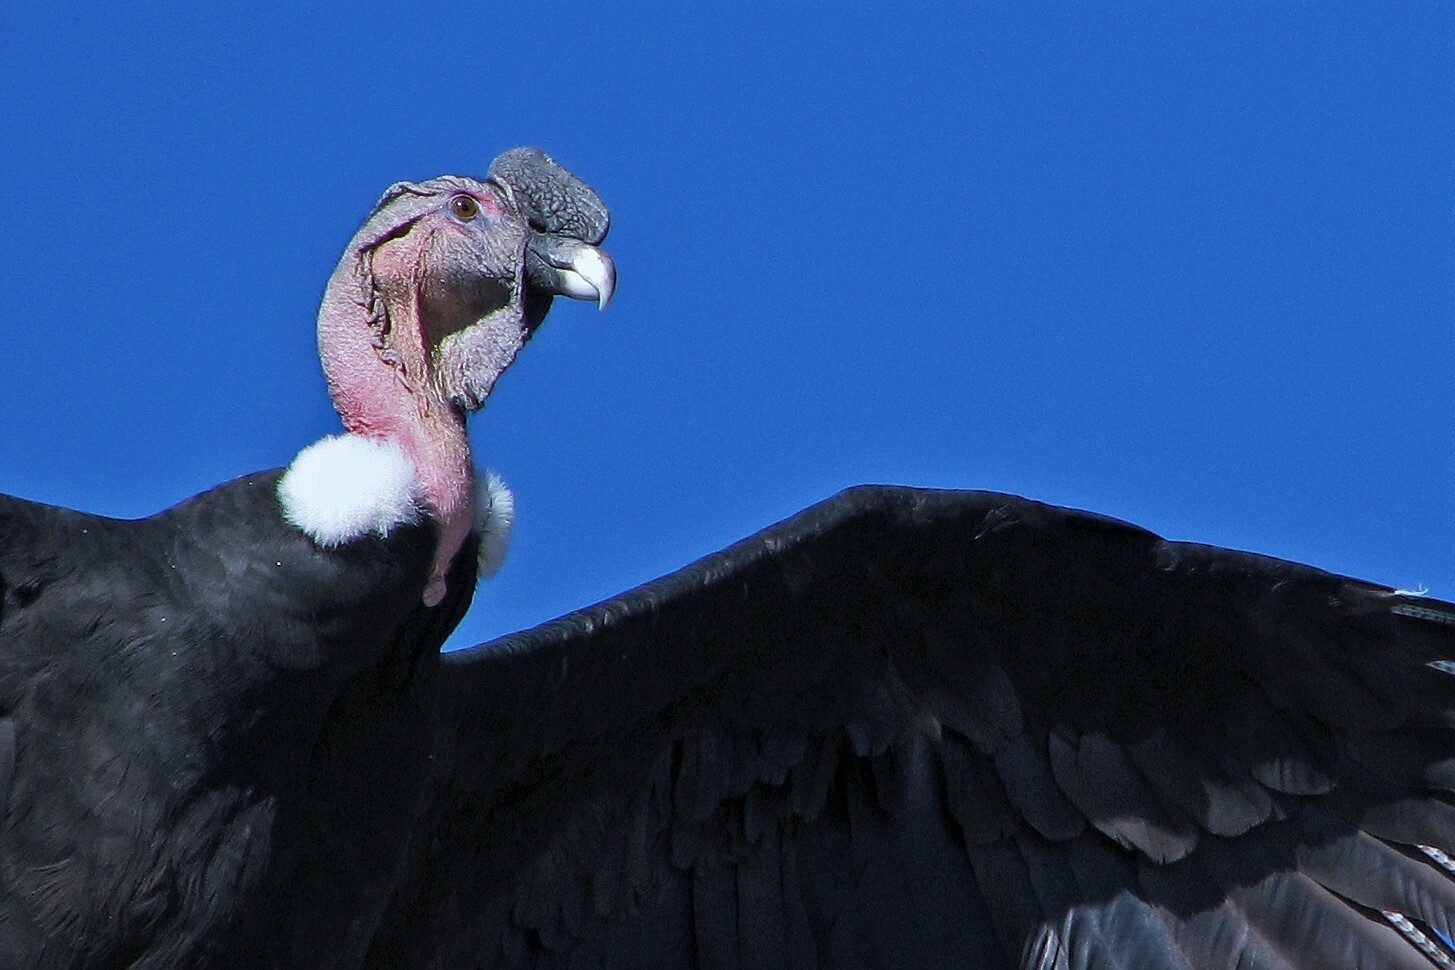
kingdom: Animalia
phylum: Chordata
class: Aves
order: Accipitriformes
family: Cathartidae
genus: Vultur
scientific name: Vultur gryphus
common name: Andean condor
